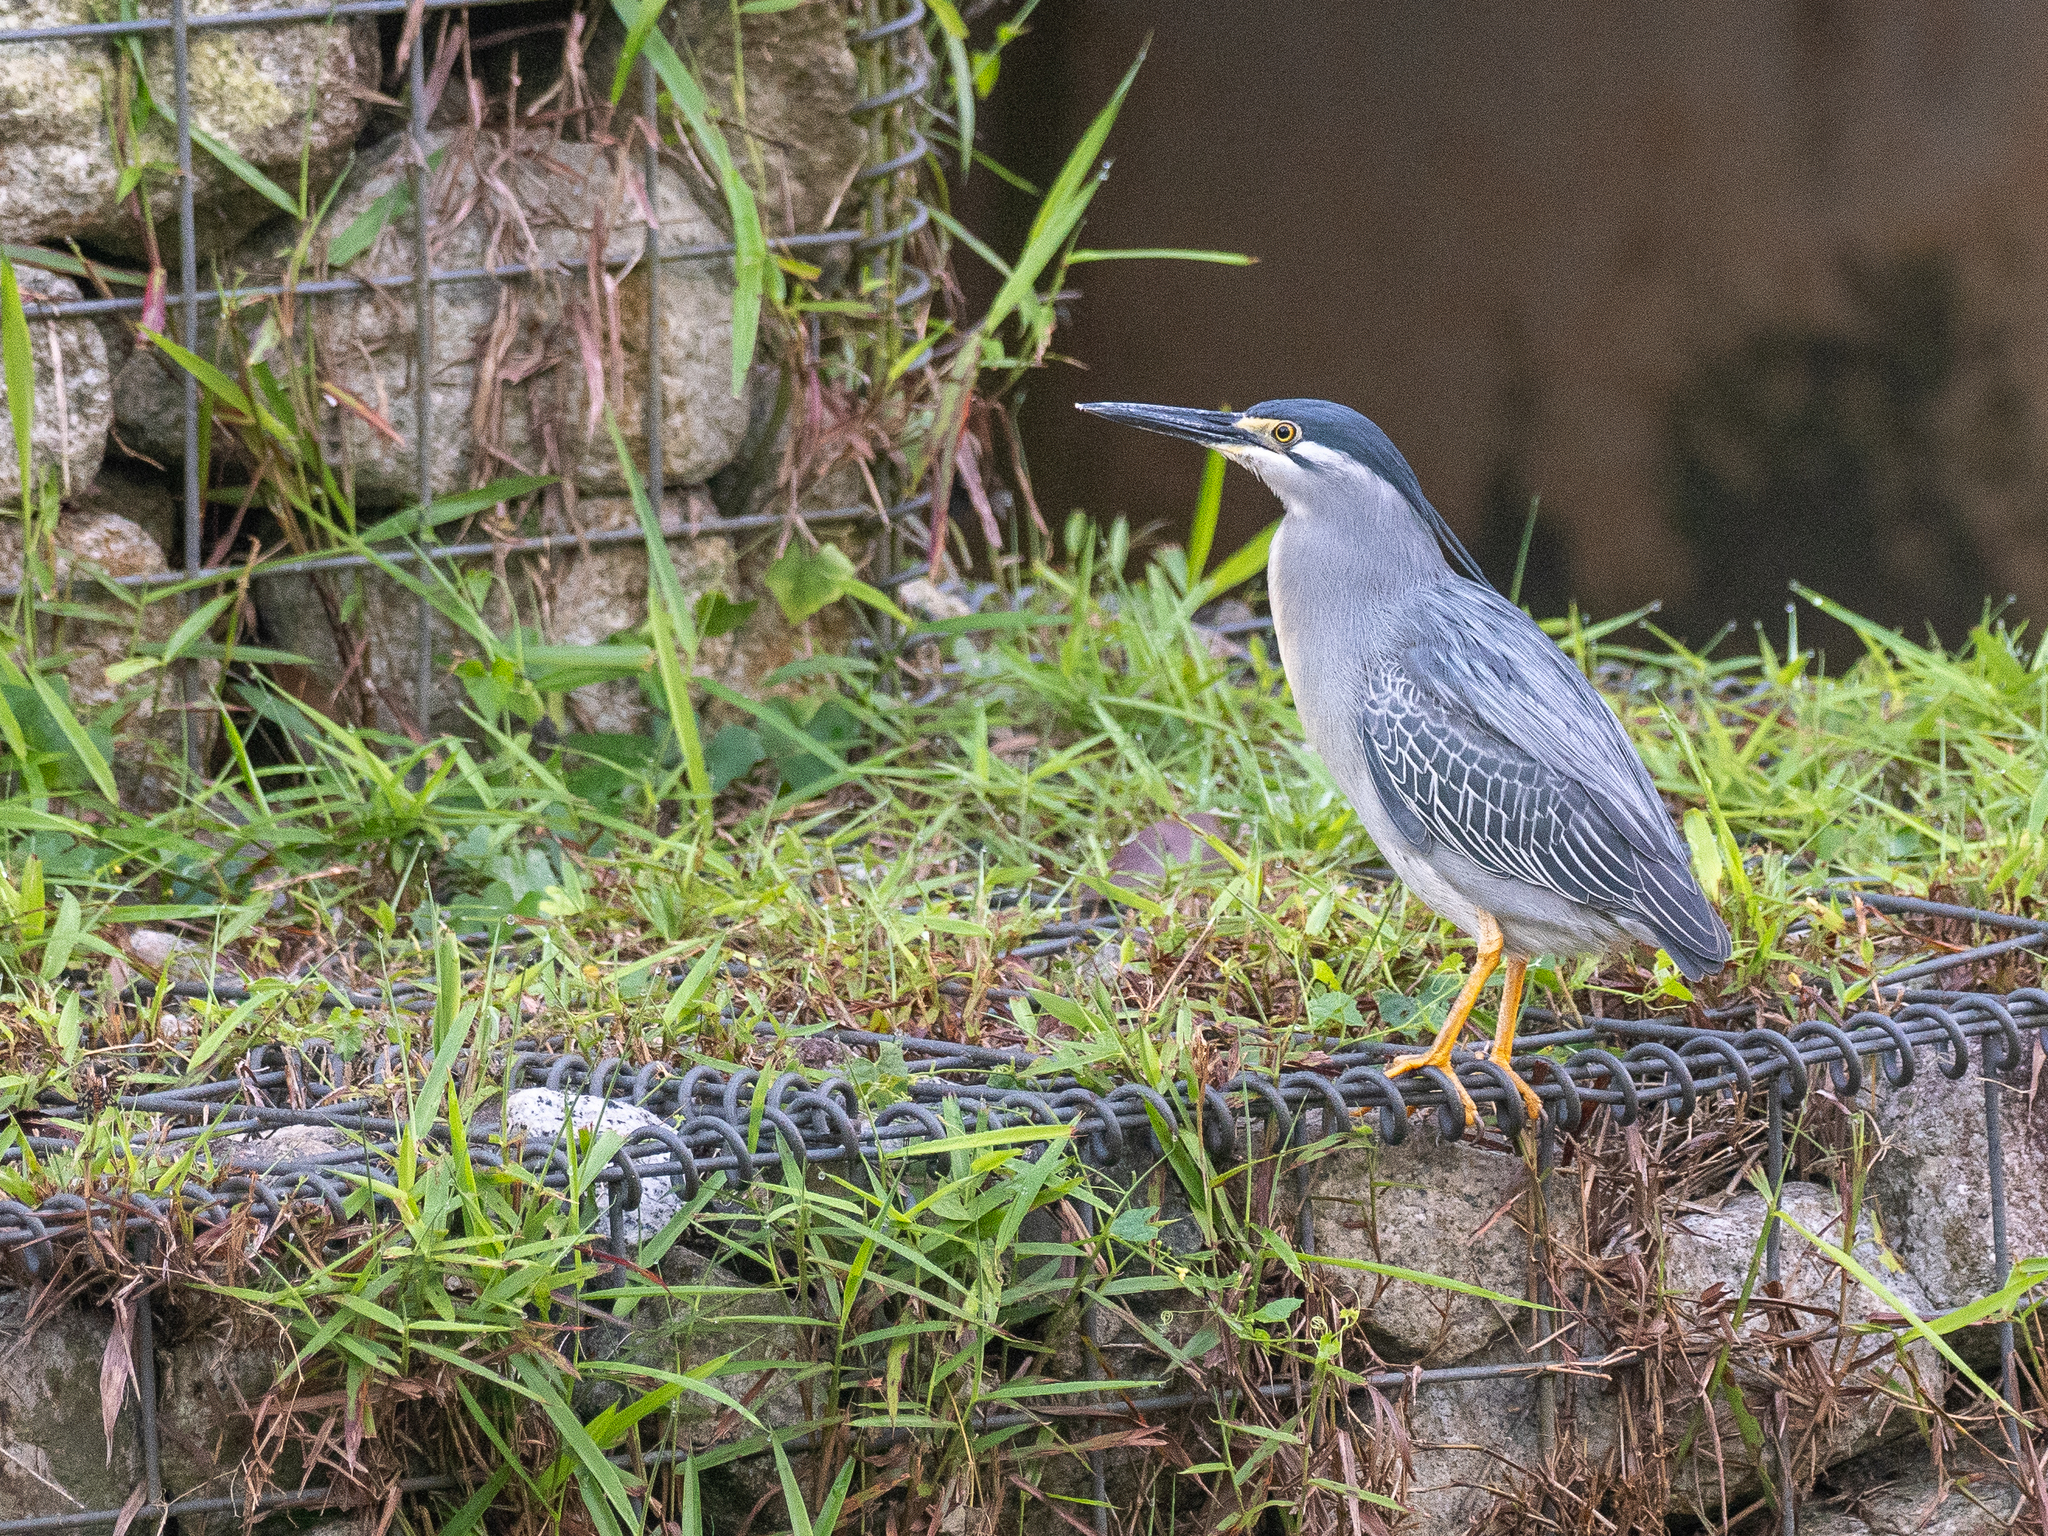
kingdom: Animalia
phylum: Chordata
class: Aves
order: Pelecaniformes
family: Ardeidae
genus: Butorides
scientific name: Butorides striata
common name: Striated heron
